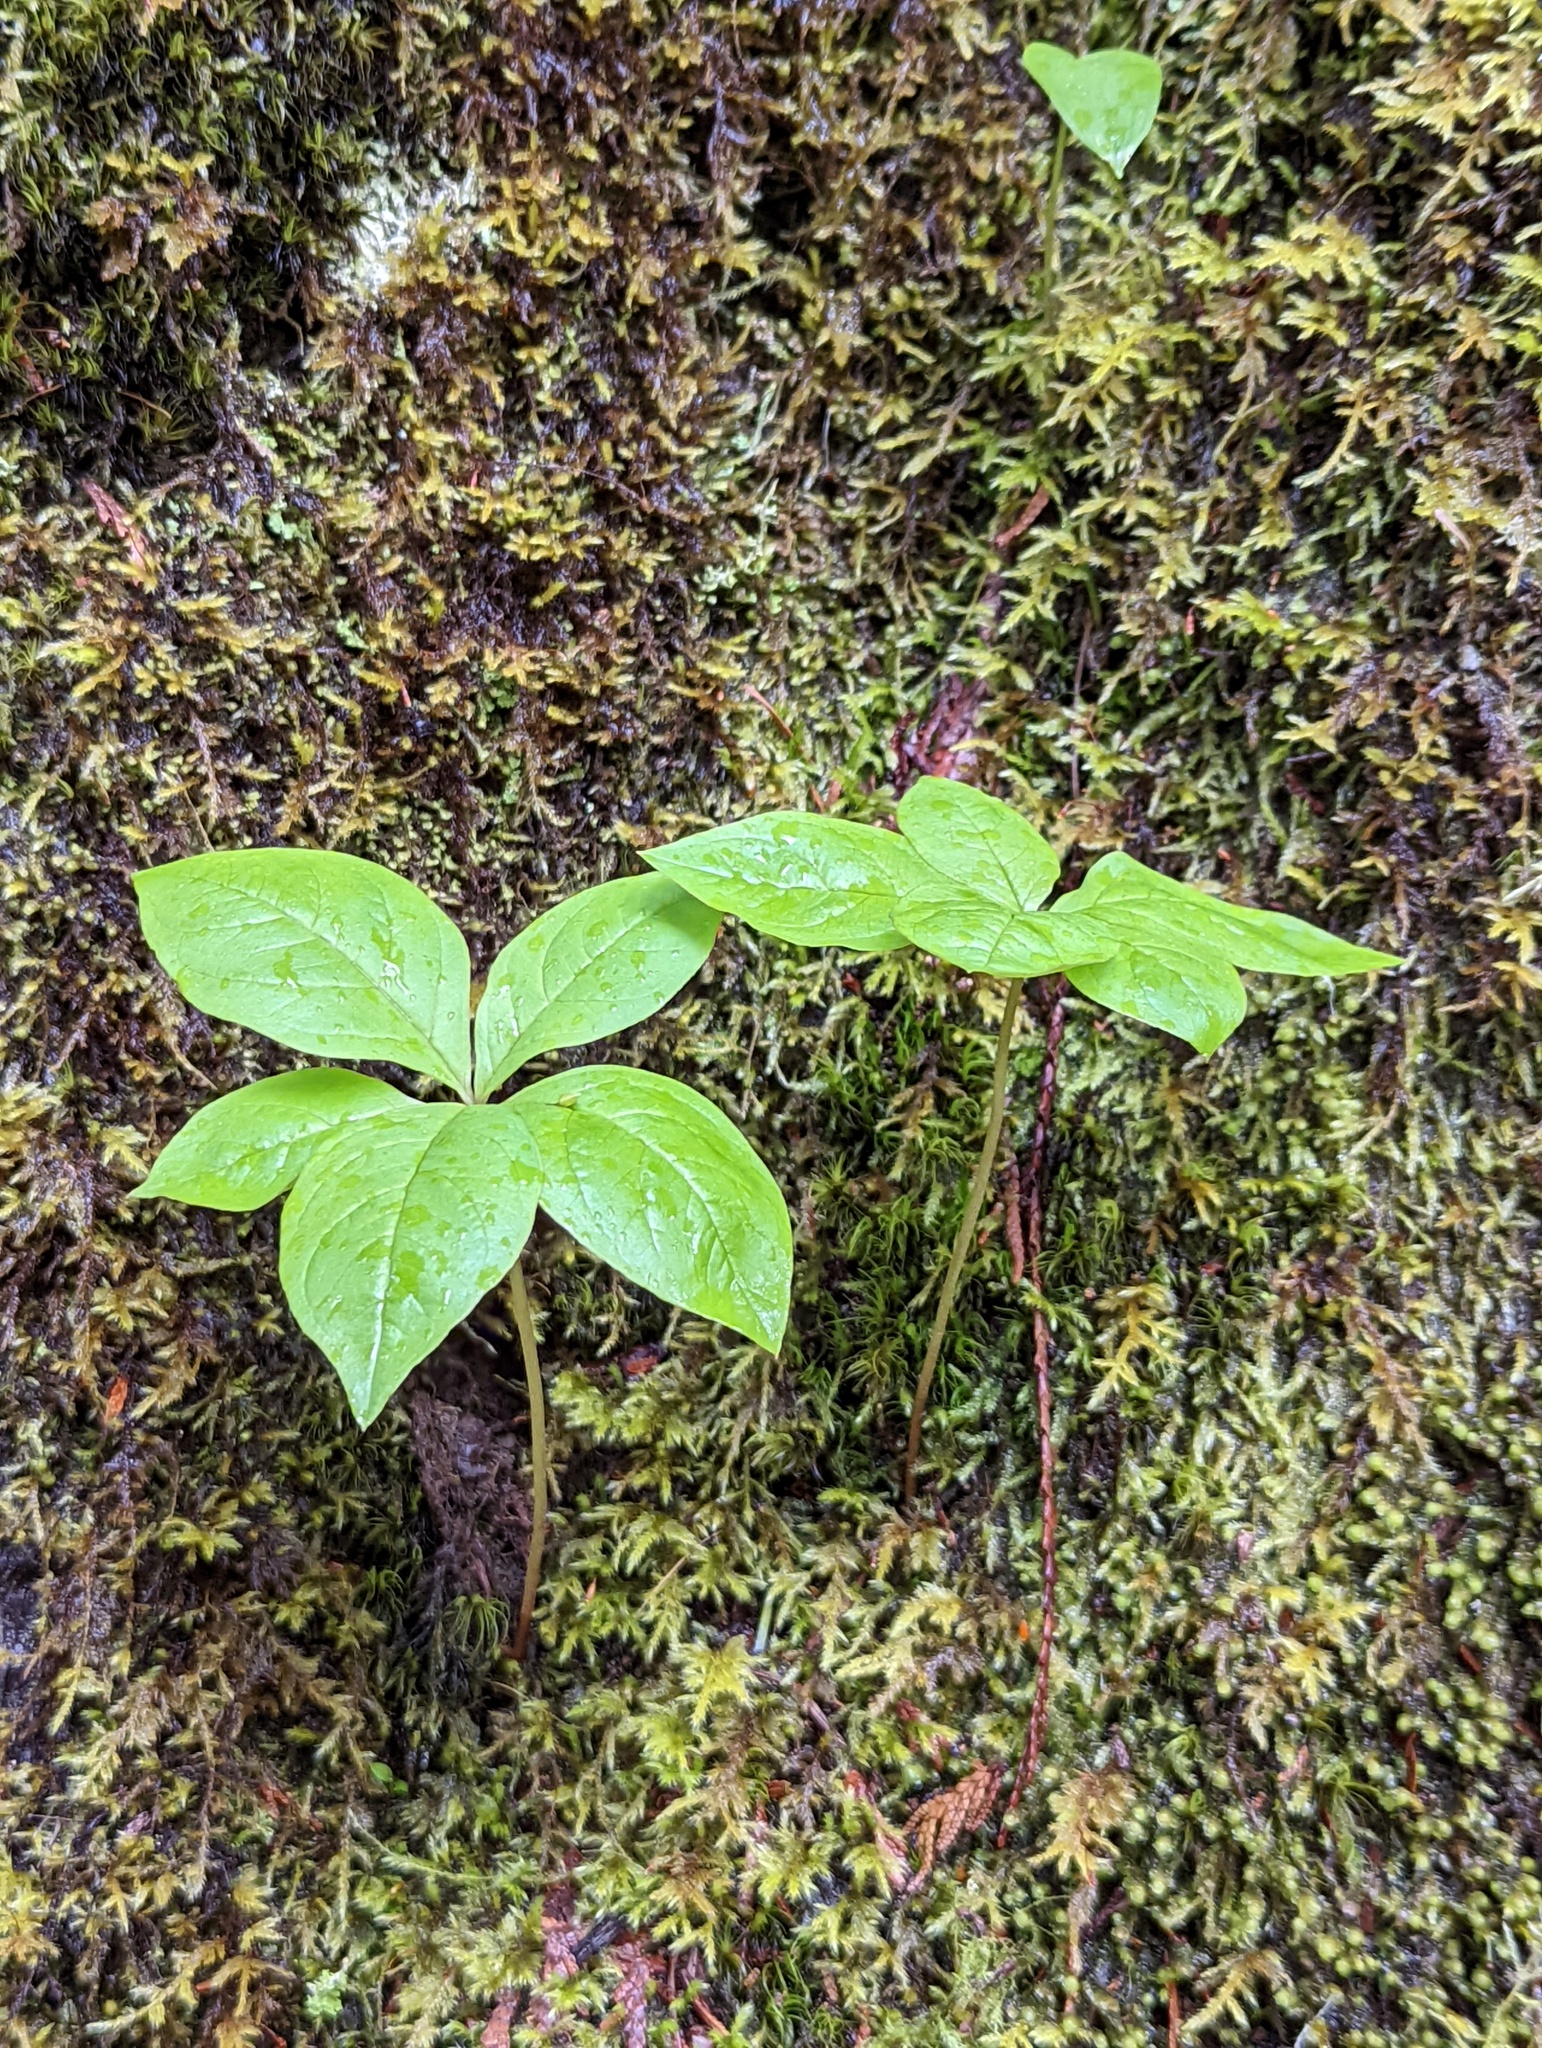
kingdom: Plantae
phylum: Tracheophyta
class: Magnoliopsida
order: Ericales
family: Primulaceae
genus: Lysimachia
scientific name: Lysimachia latifolia
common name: Pacific starflower
